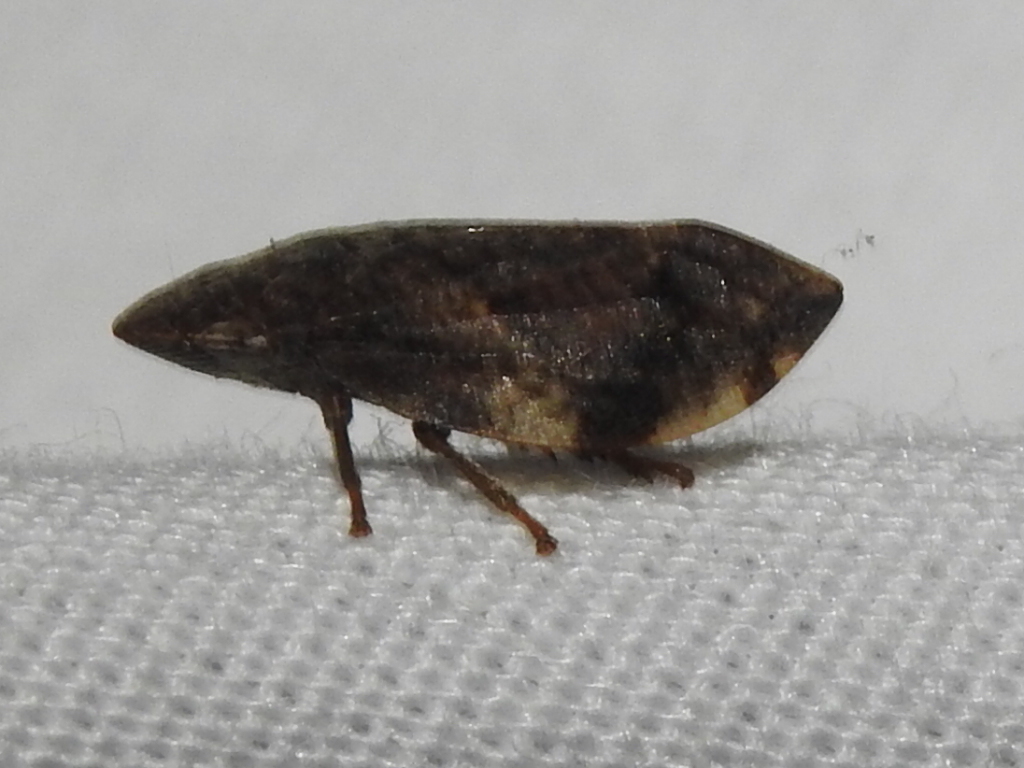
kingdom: Animalia
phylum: Arthropoda
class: Insecta
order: Hemiptera
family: Aphrophoridae
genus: Lepyronia
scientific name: Lepyronia quadrangularis
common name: Diamond-backed spittlebug
